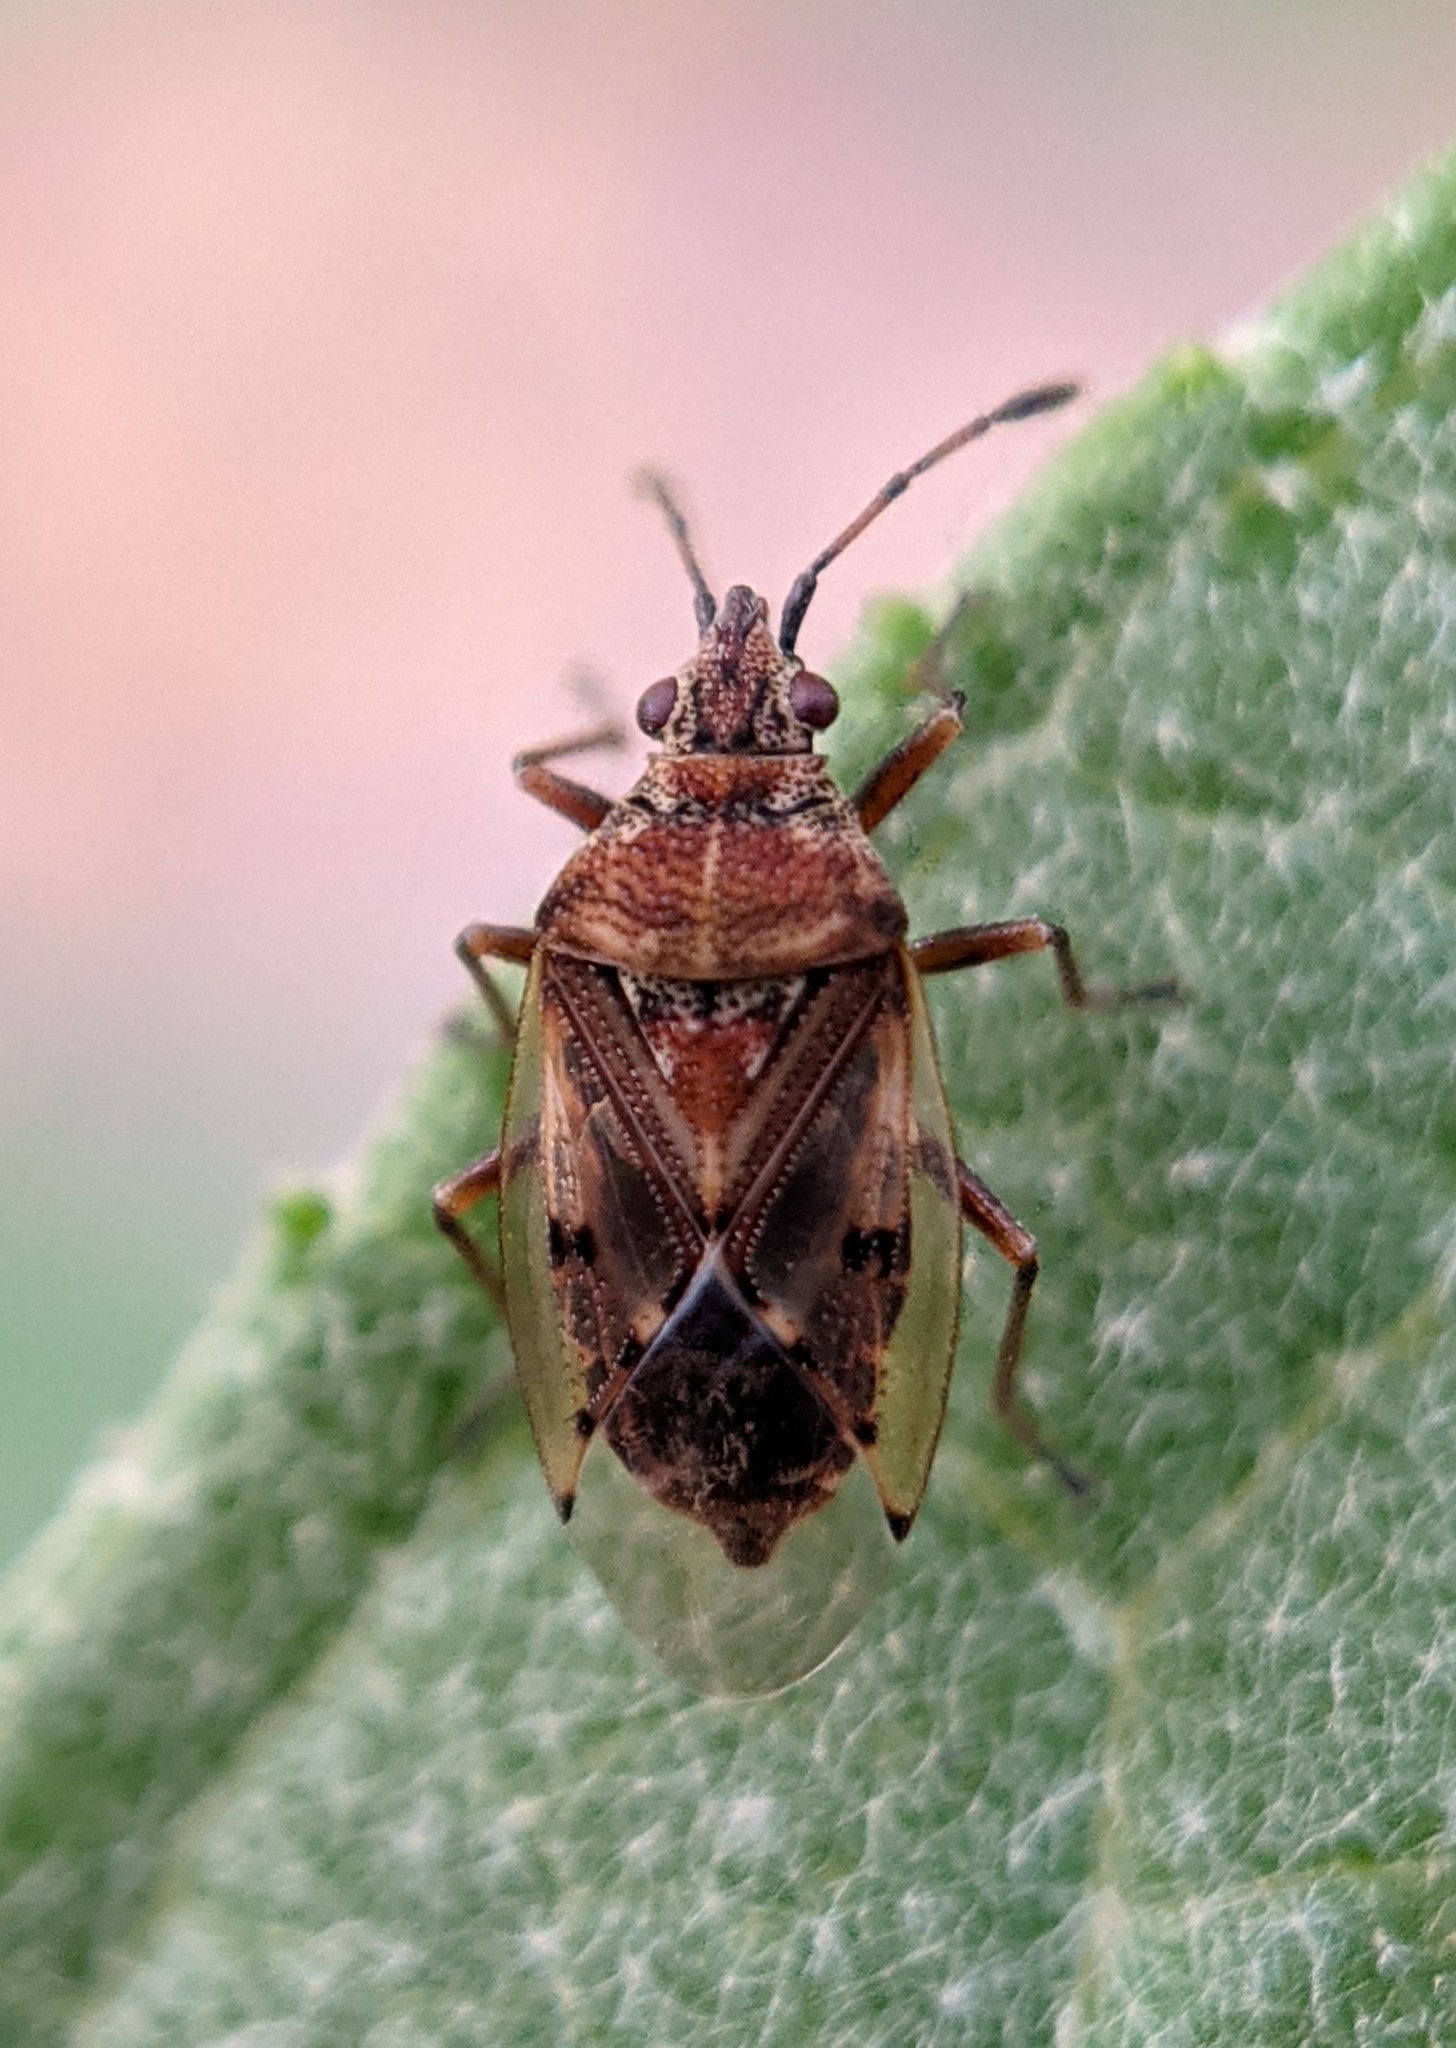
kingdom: Animalia
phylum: Arthropoda
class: Insecta
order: Hemiptera
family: Lygaeidae
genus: Kleidocerys
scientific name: Kleidocerys resedae
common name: Birch catkin bug
